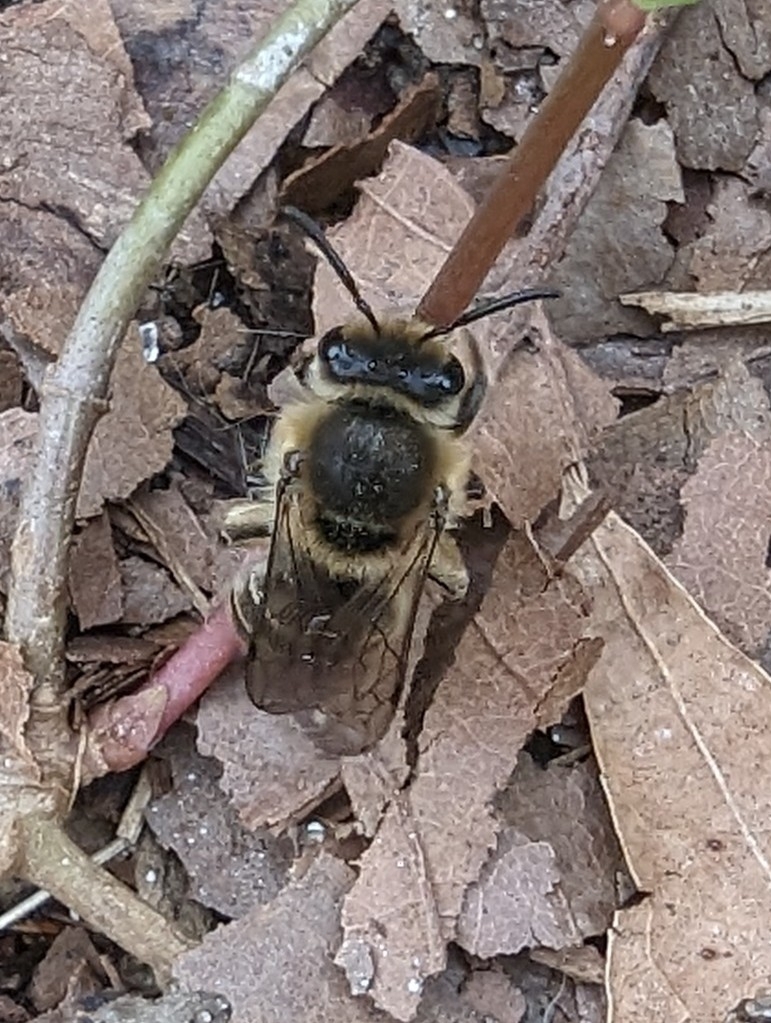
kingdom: Animalia
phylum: Arthropoda
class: Insecta
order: Hymenoptera
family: Colletidae
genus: Colletes
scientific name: Colletes inaequalis
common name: Unequal cellophane bee
